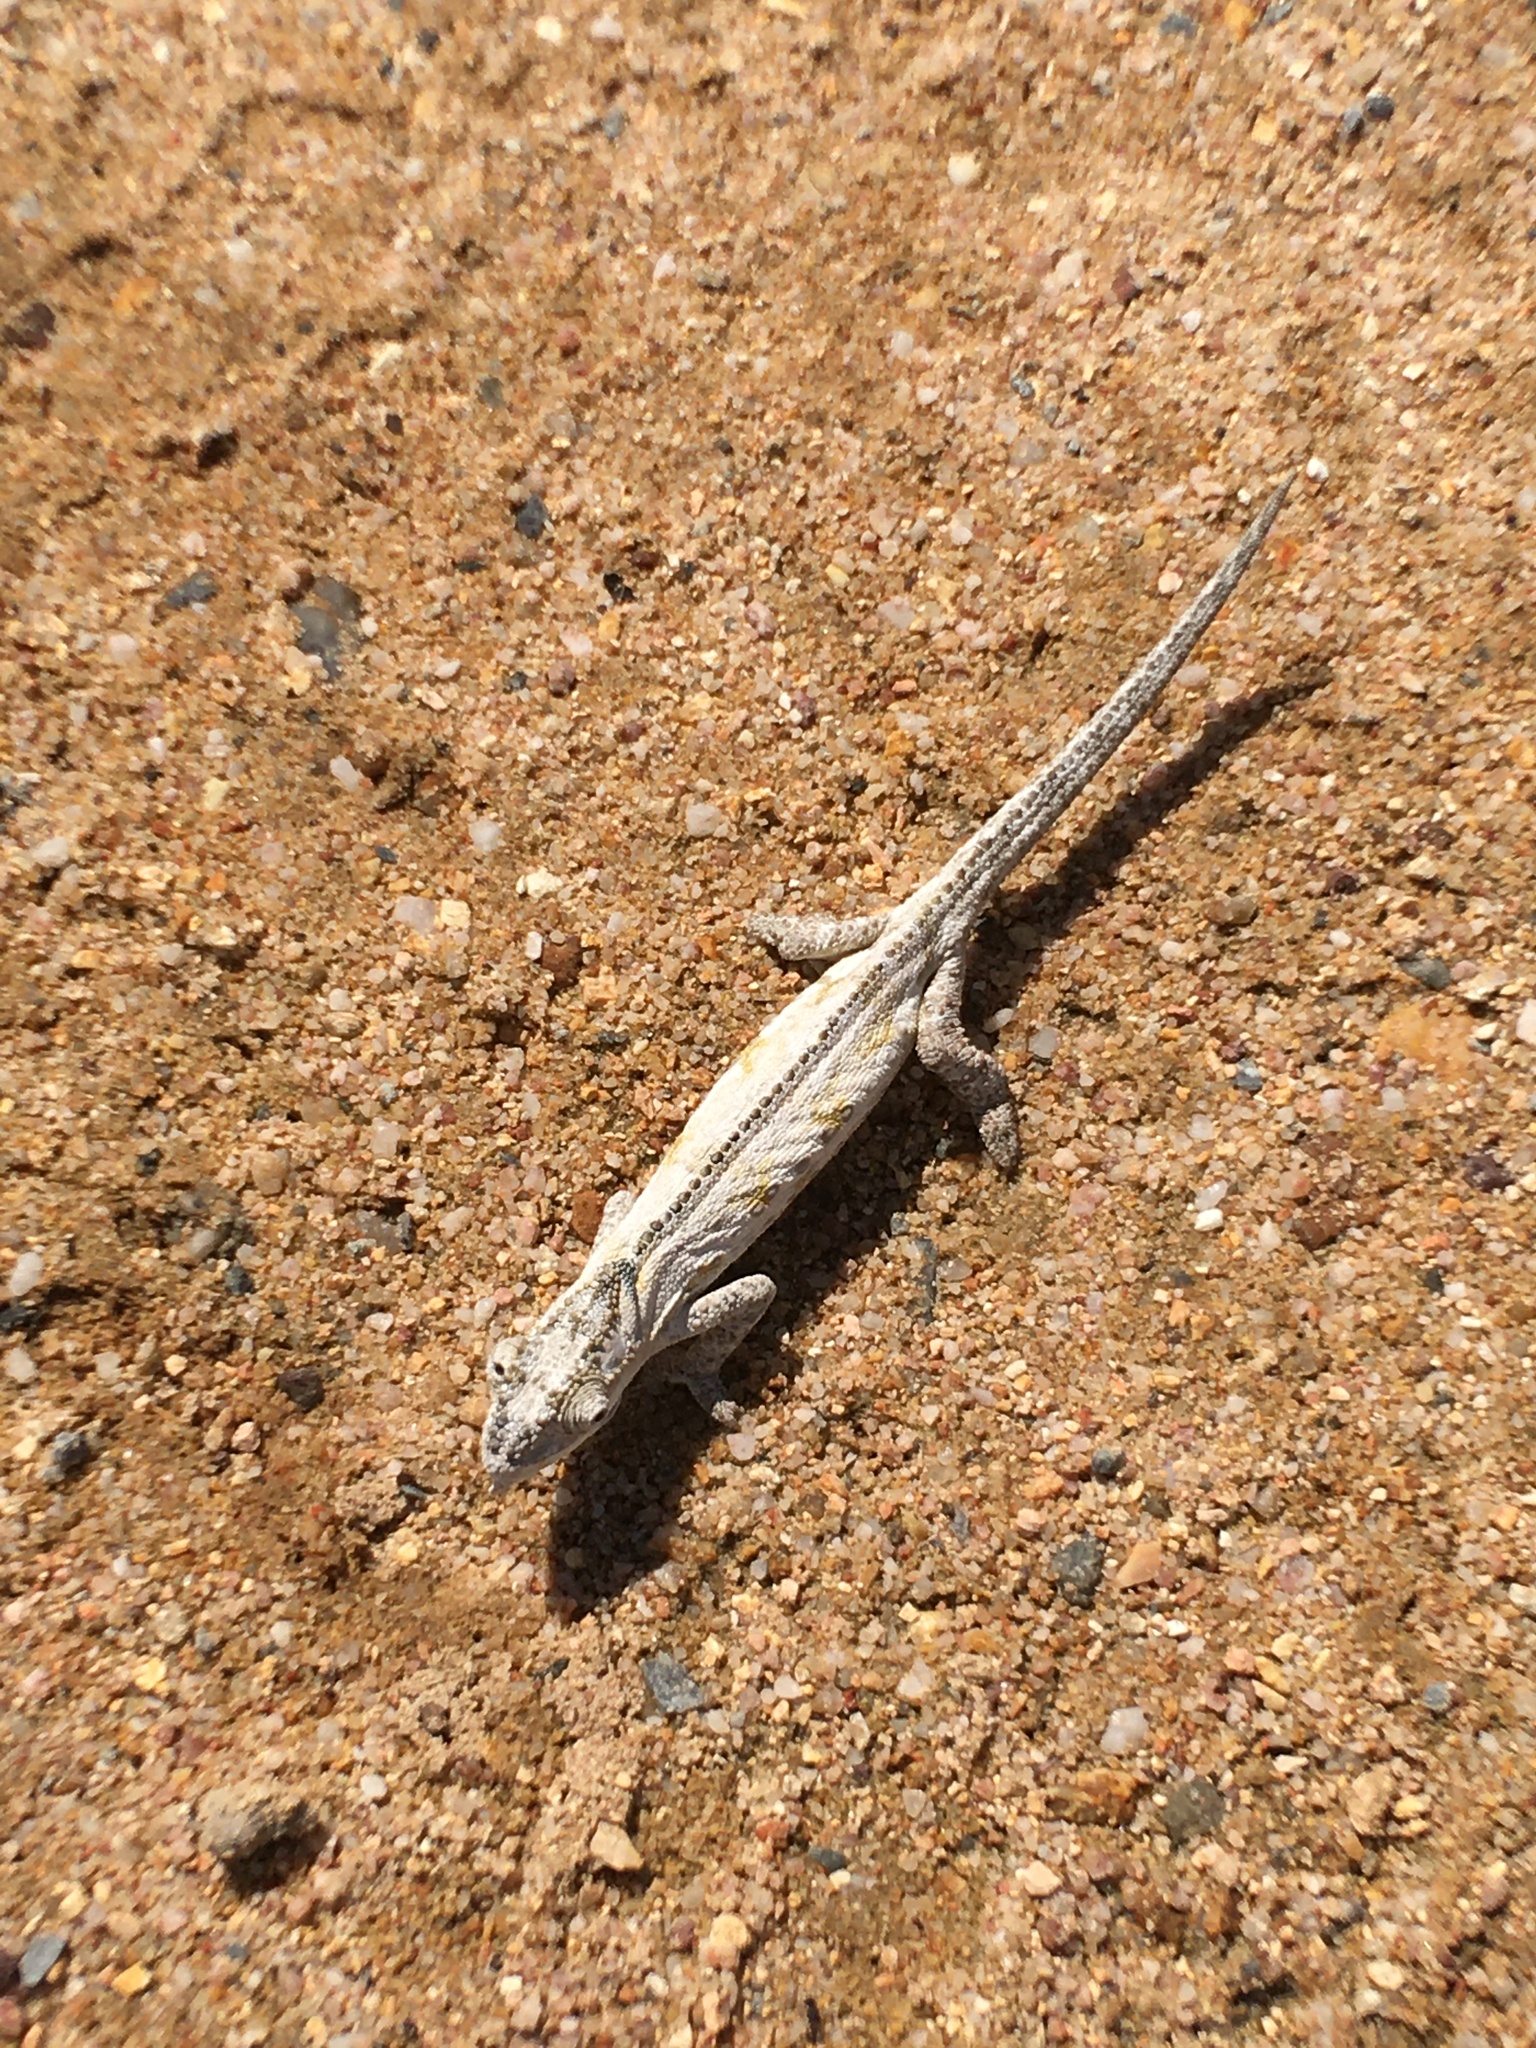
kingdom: Animalia
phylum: Chordata
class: Squamata
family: Chamaeleonidae
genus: Bradypodion
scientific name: Bradypodion occidentale
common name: Western dwarf chameleon
